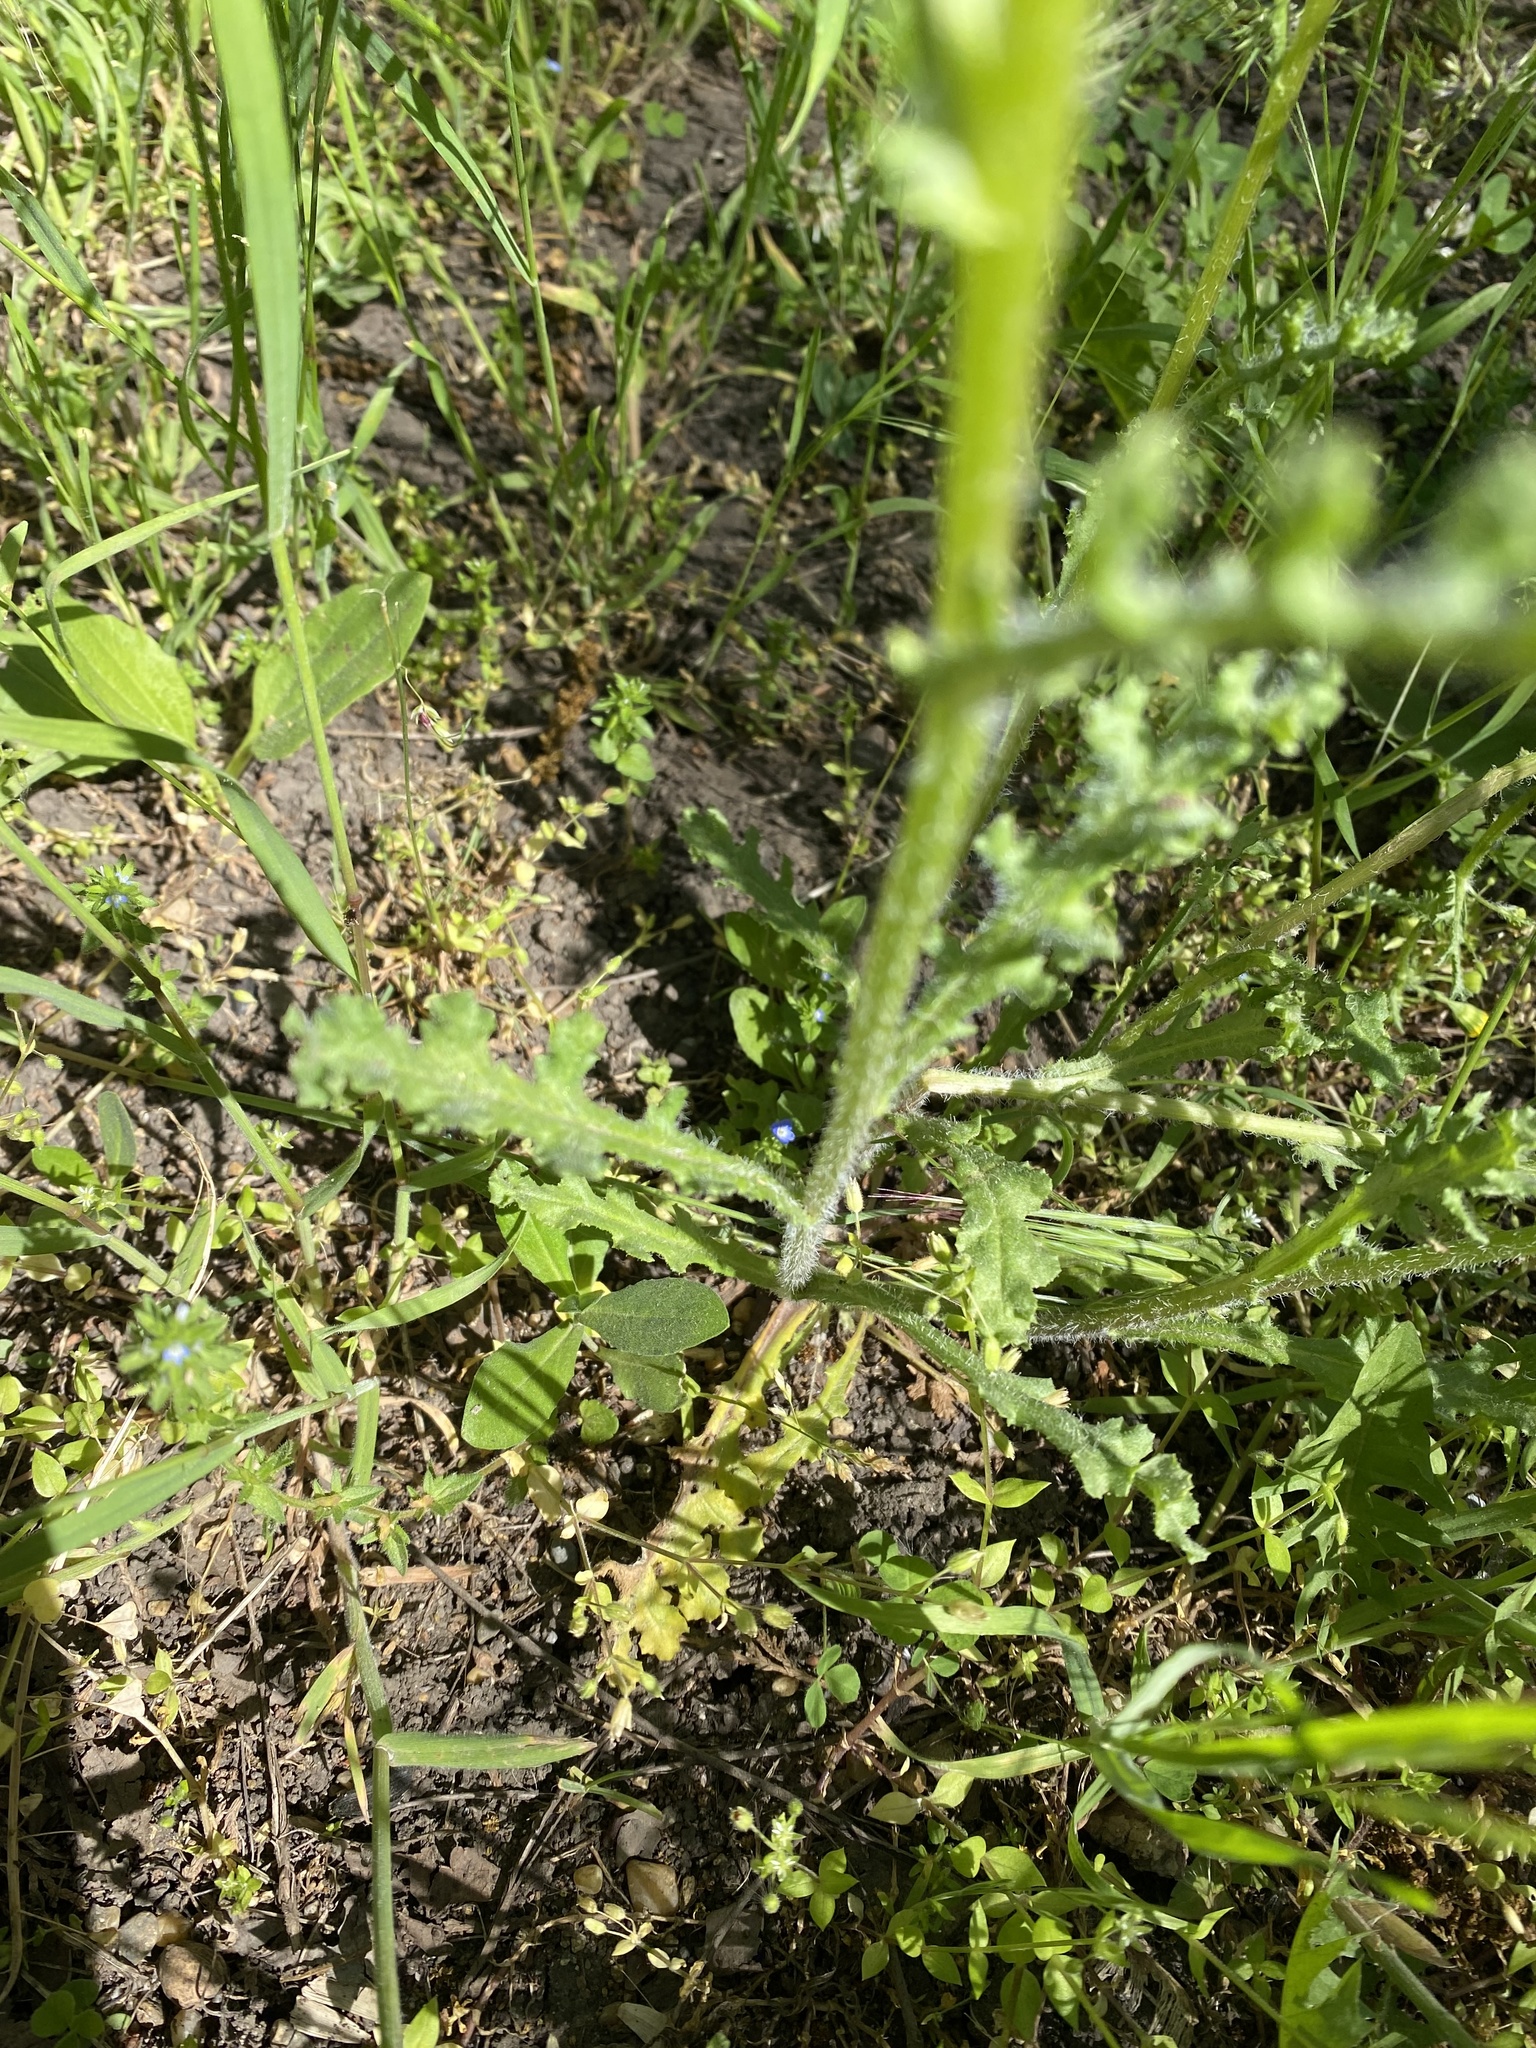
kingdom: Plantae
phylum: Tracheophyta
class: Magnoliopsida
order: Asterales
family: Asteraceae
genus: Senecio
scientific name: Senecio vernalis
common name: Eastern groundsel
